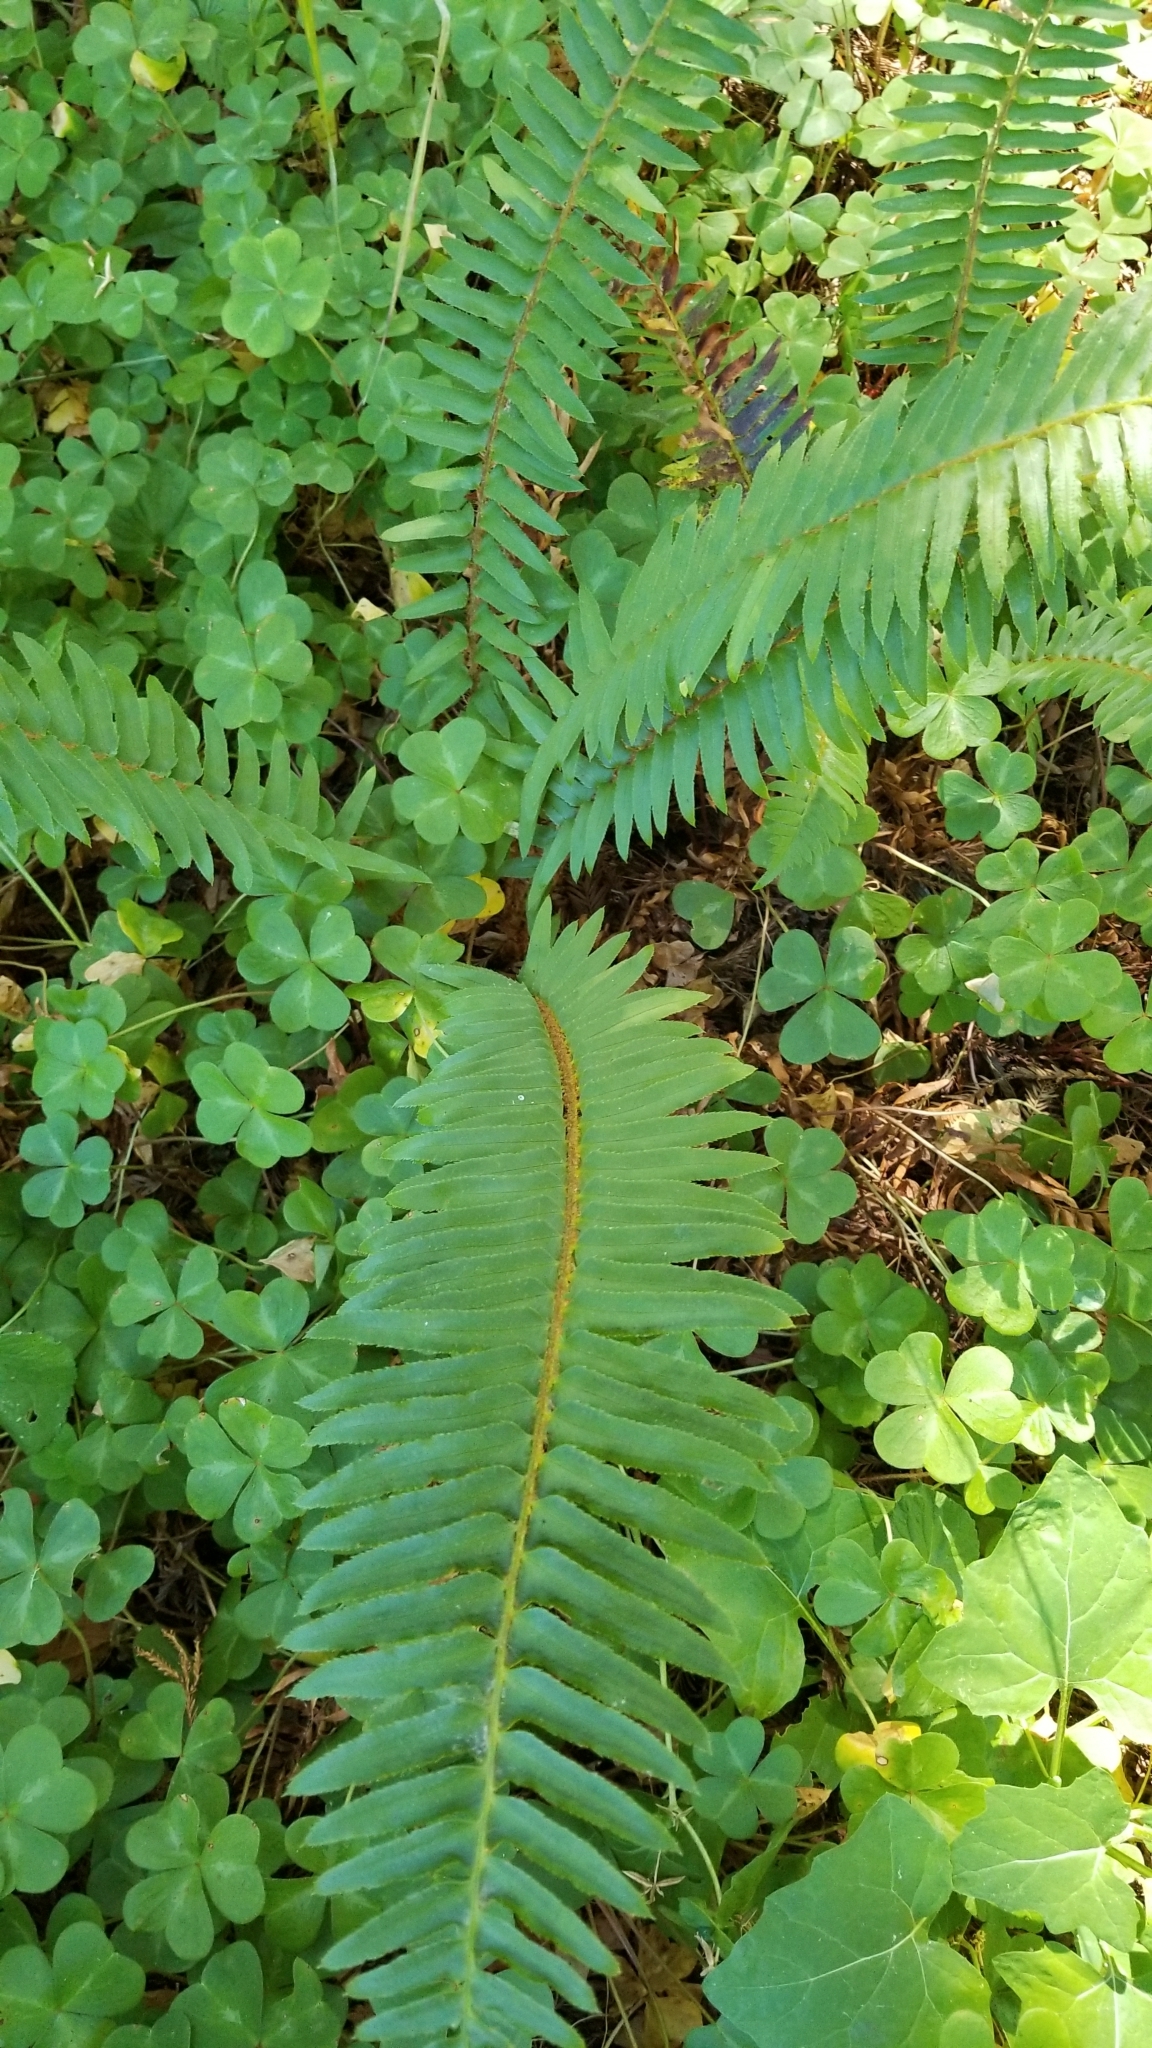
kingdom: Plantae
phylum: Tracheophyta
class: Polypodiopsida
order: Polypodiales
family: Dryopteridaceae
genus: Polystichum
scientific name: Polystichum munitum
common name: Western sword-fern
